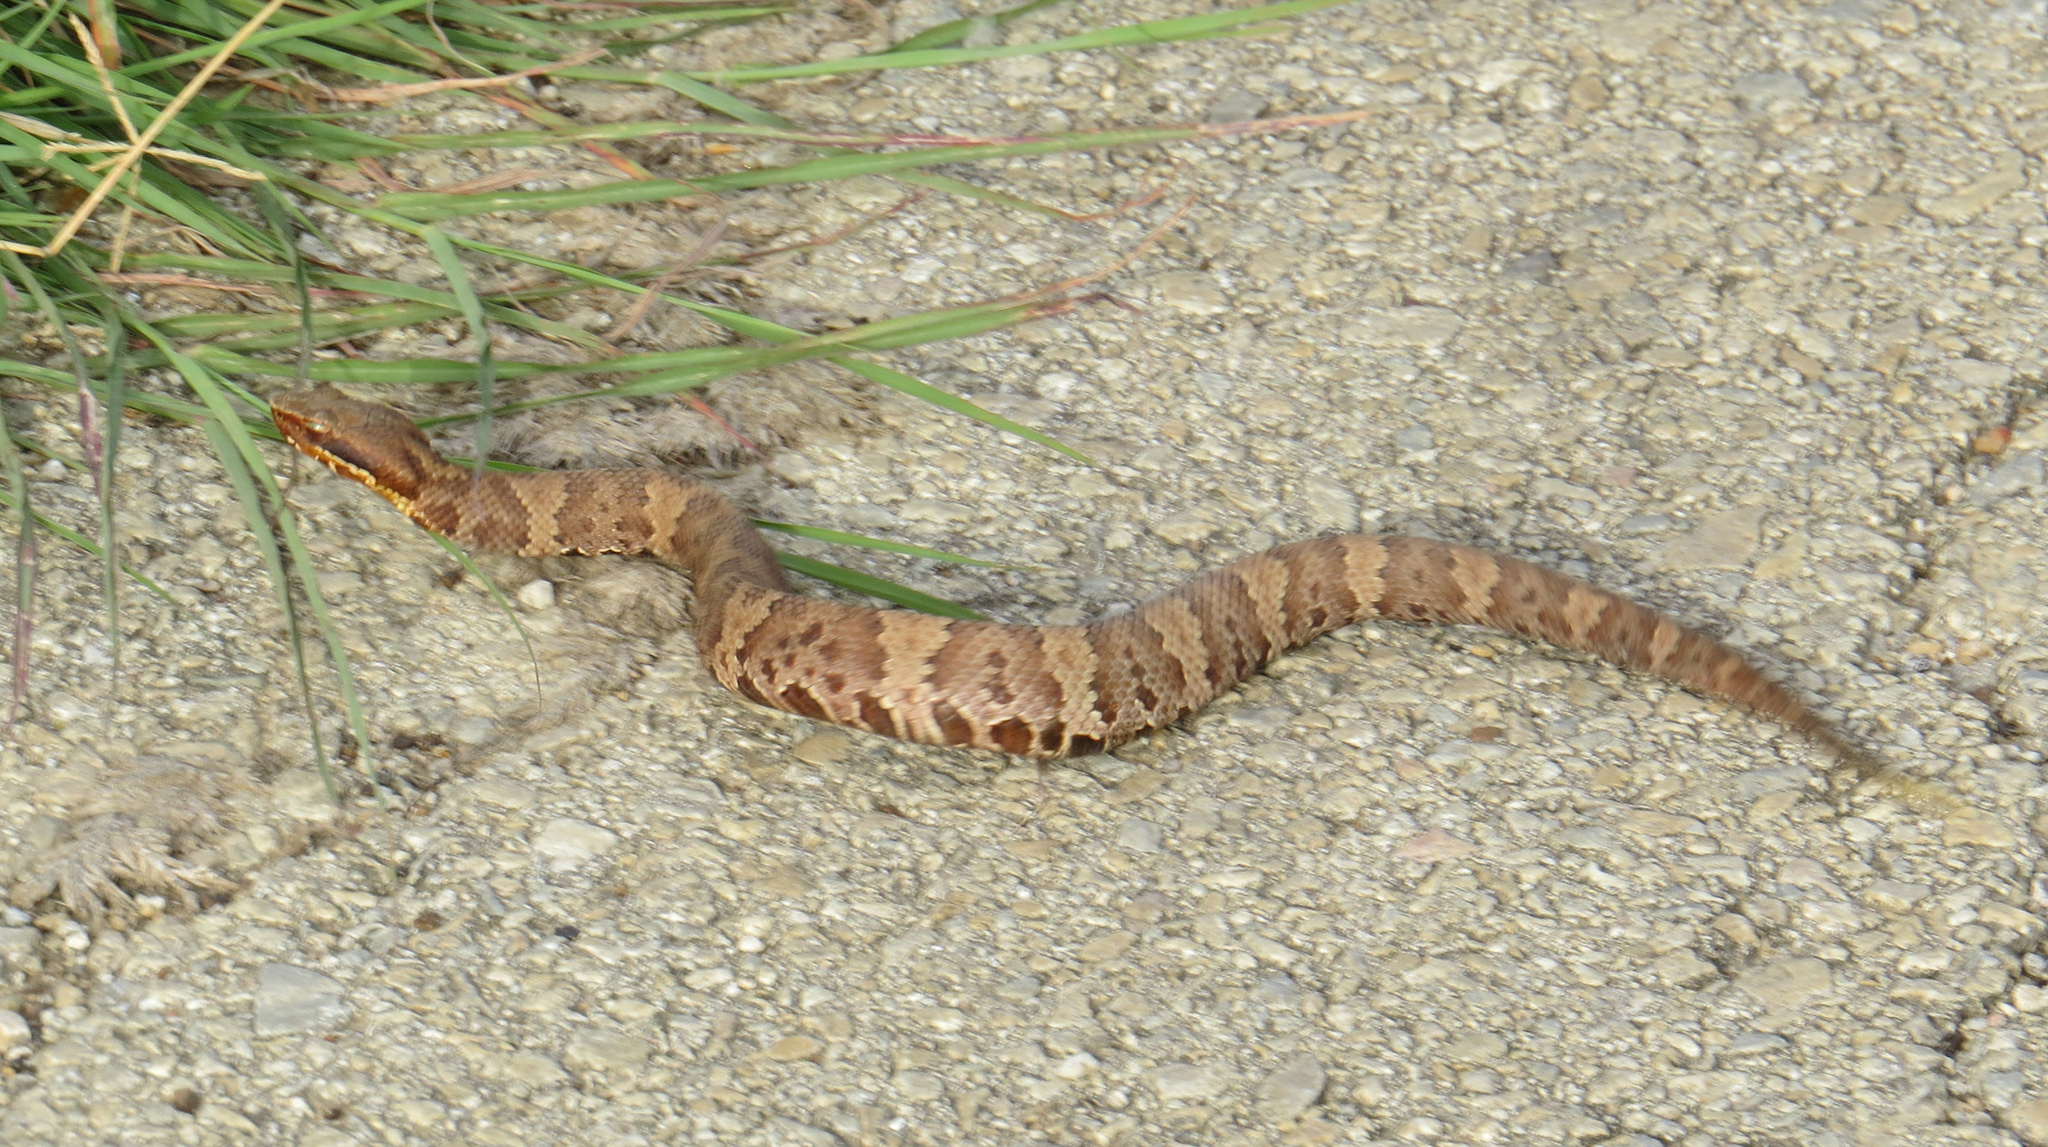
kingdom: Animalia
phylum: Chordata
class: Squamata
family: Viperidae
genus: Agkistrodon
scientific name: Agkistrodon piscivorus
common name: Cottonmouth
